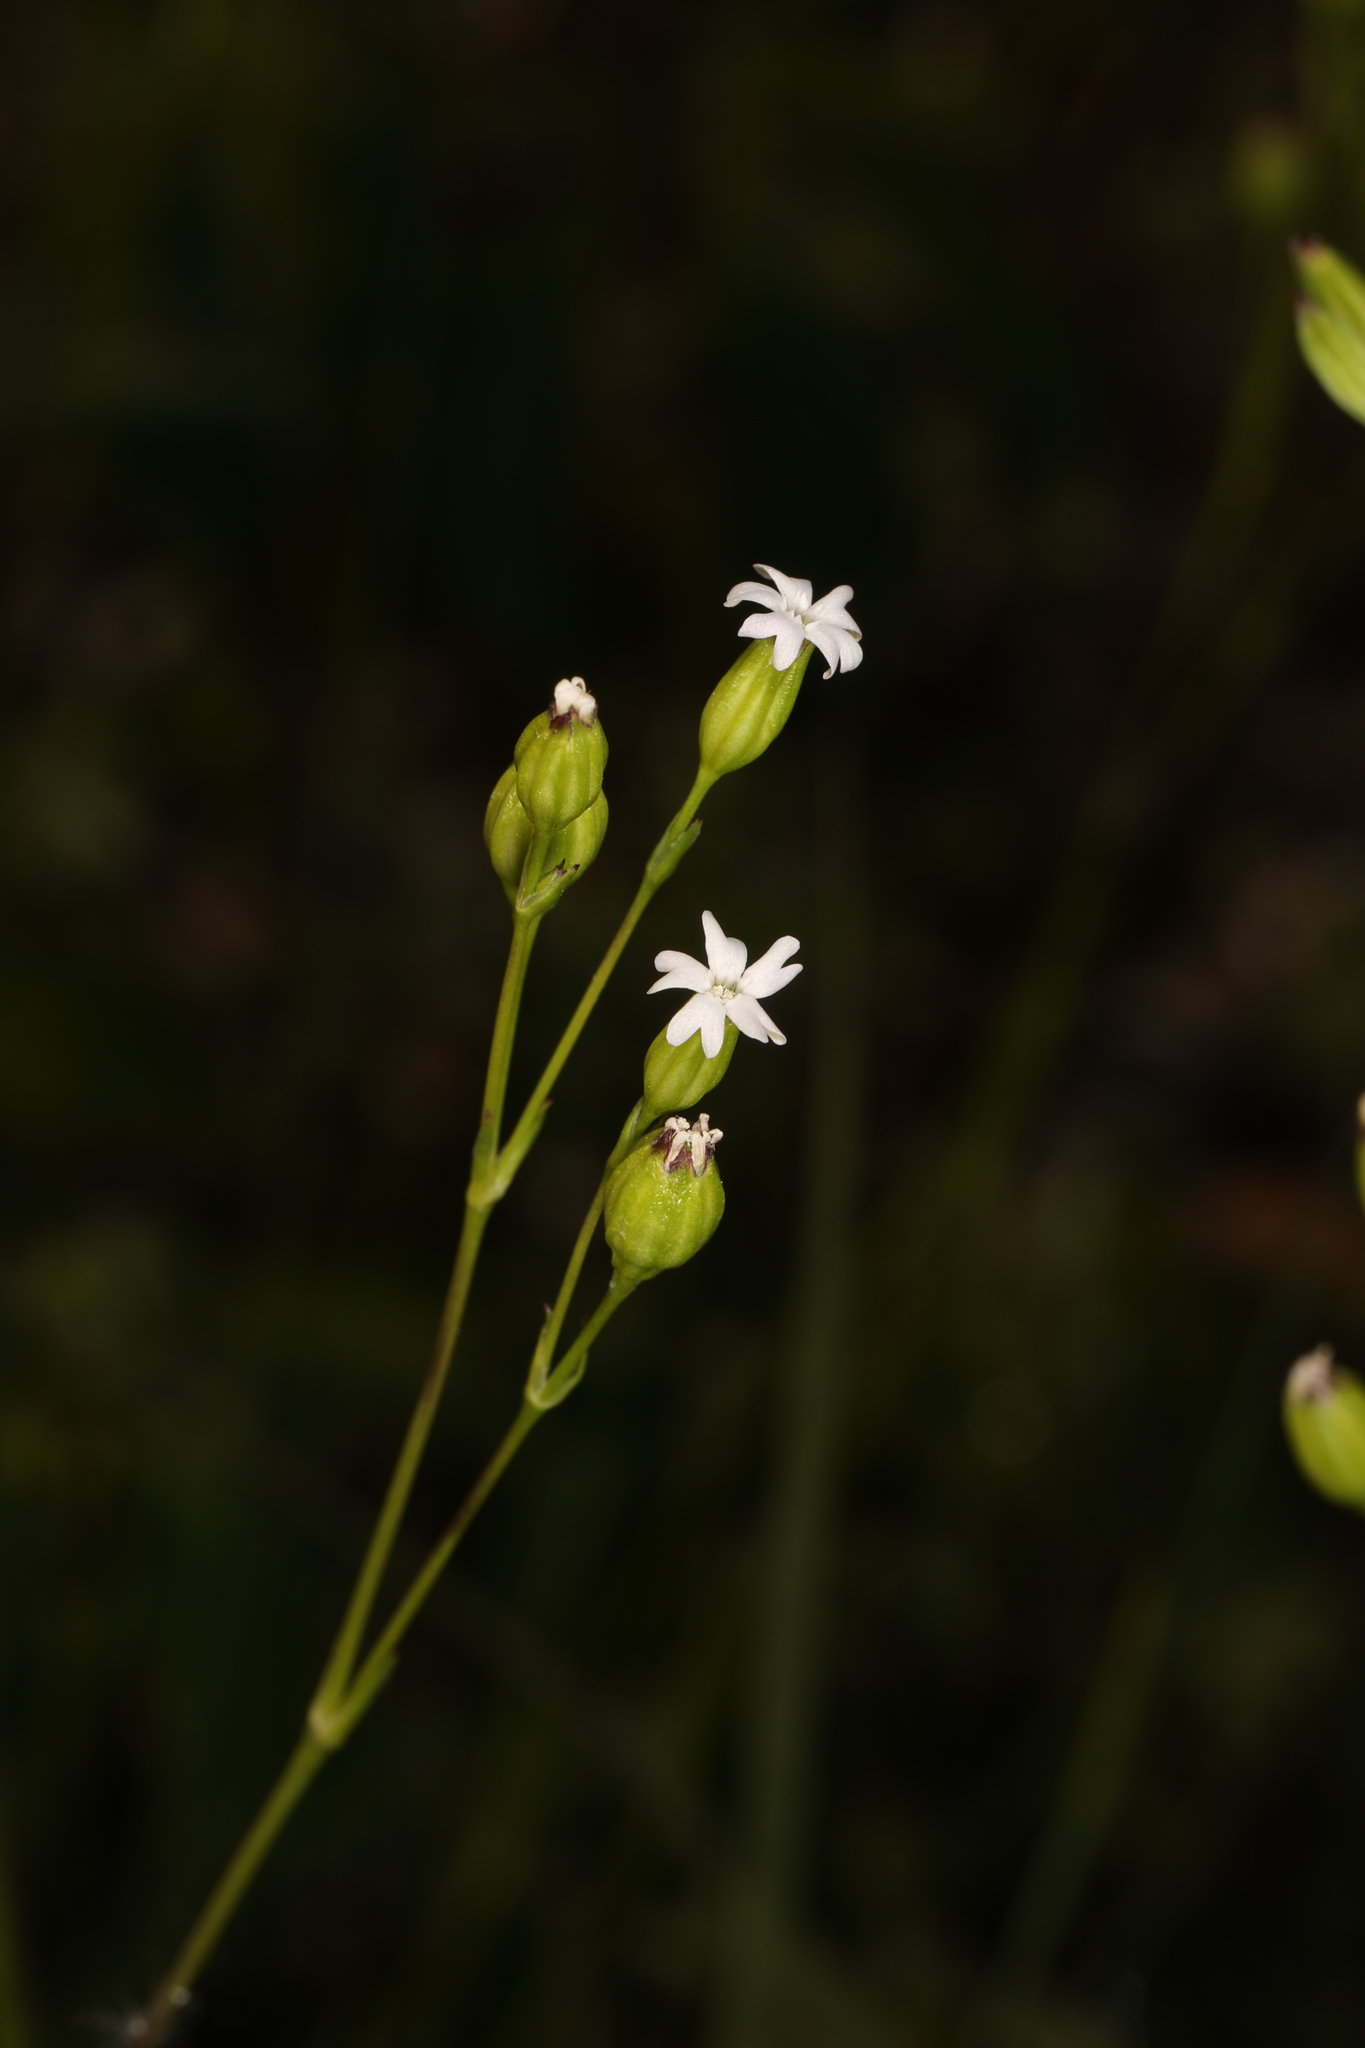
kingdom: Plantae
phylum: Tracheophyta
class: Magnoliopsida
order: Caryophyllales
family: Caryophyllaceae
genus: Silene
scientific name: Silene antirrhina
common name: Sleepy catchfly
